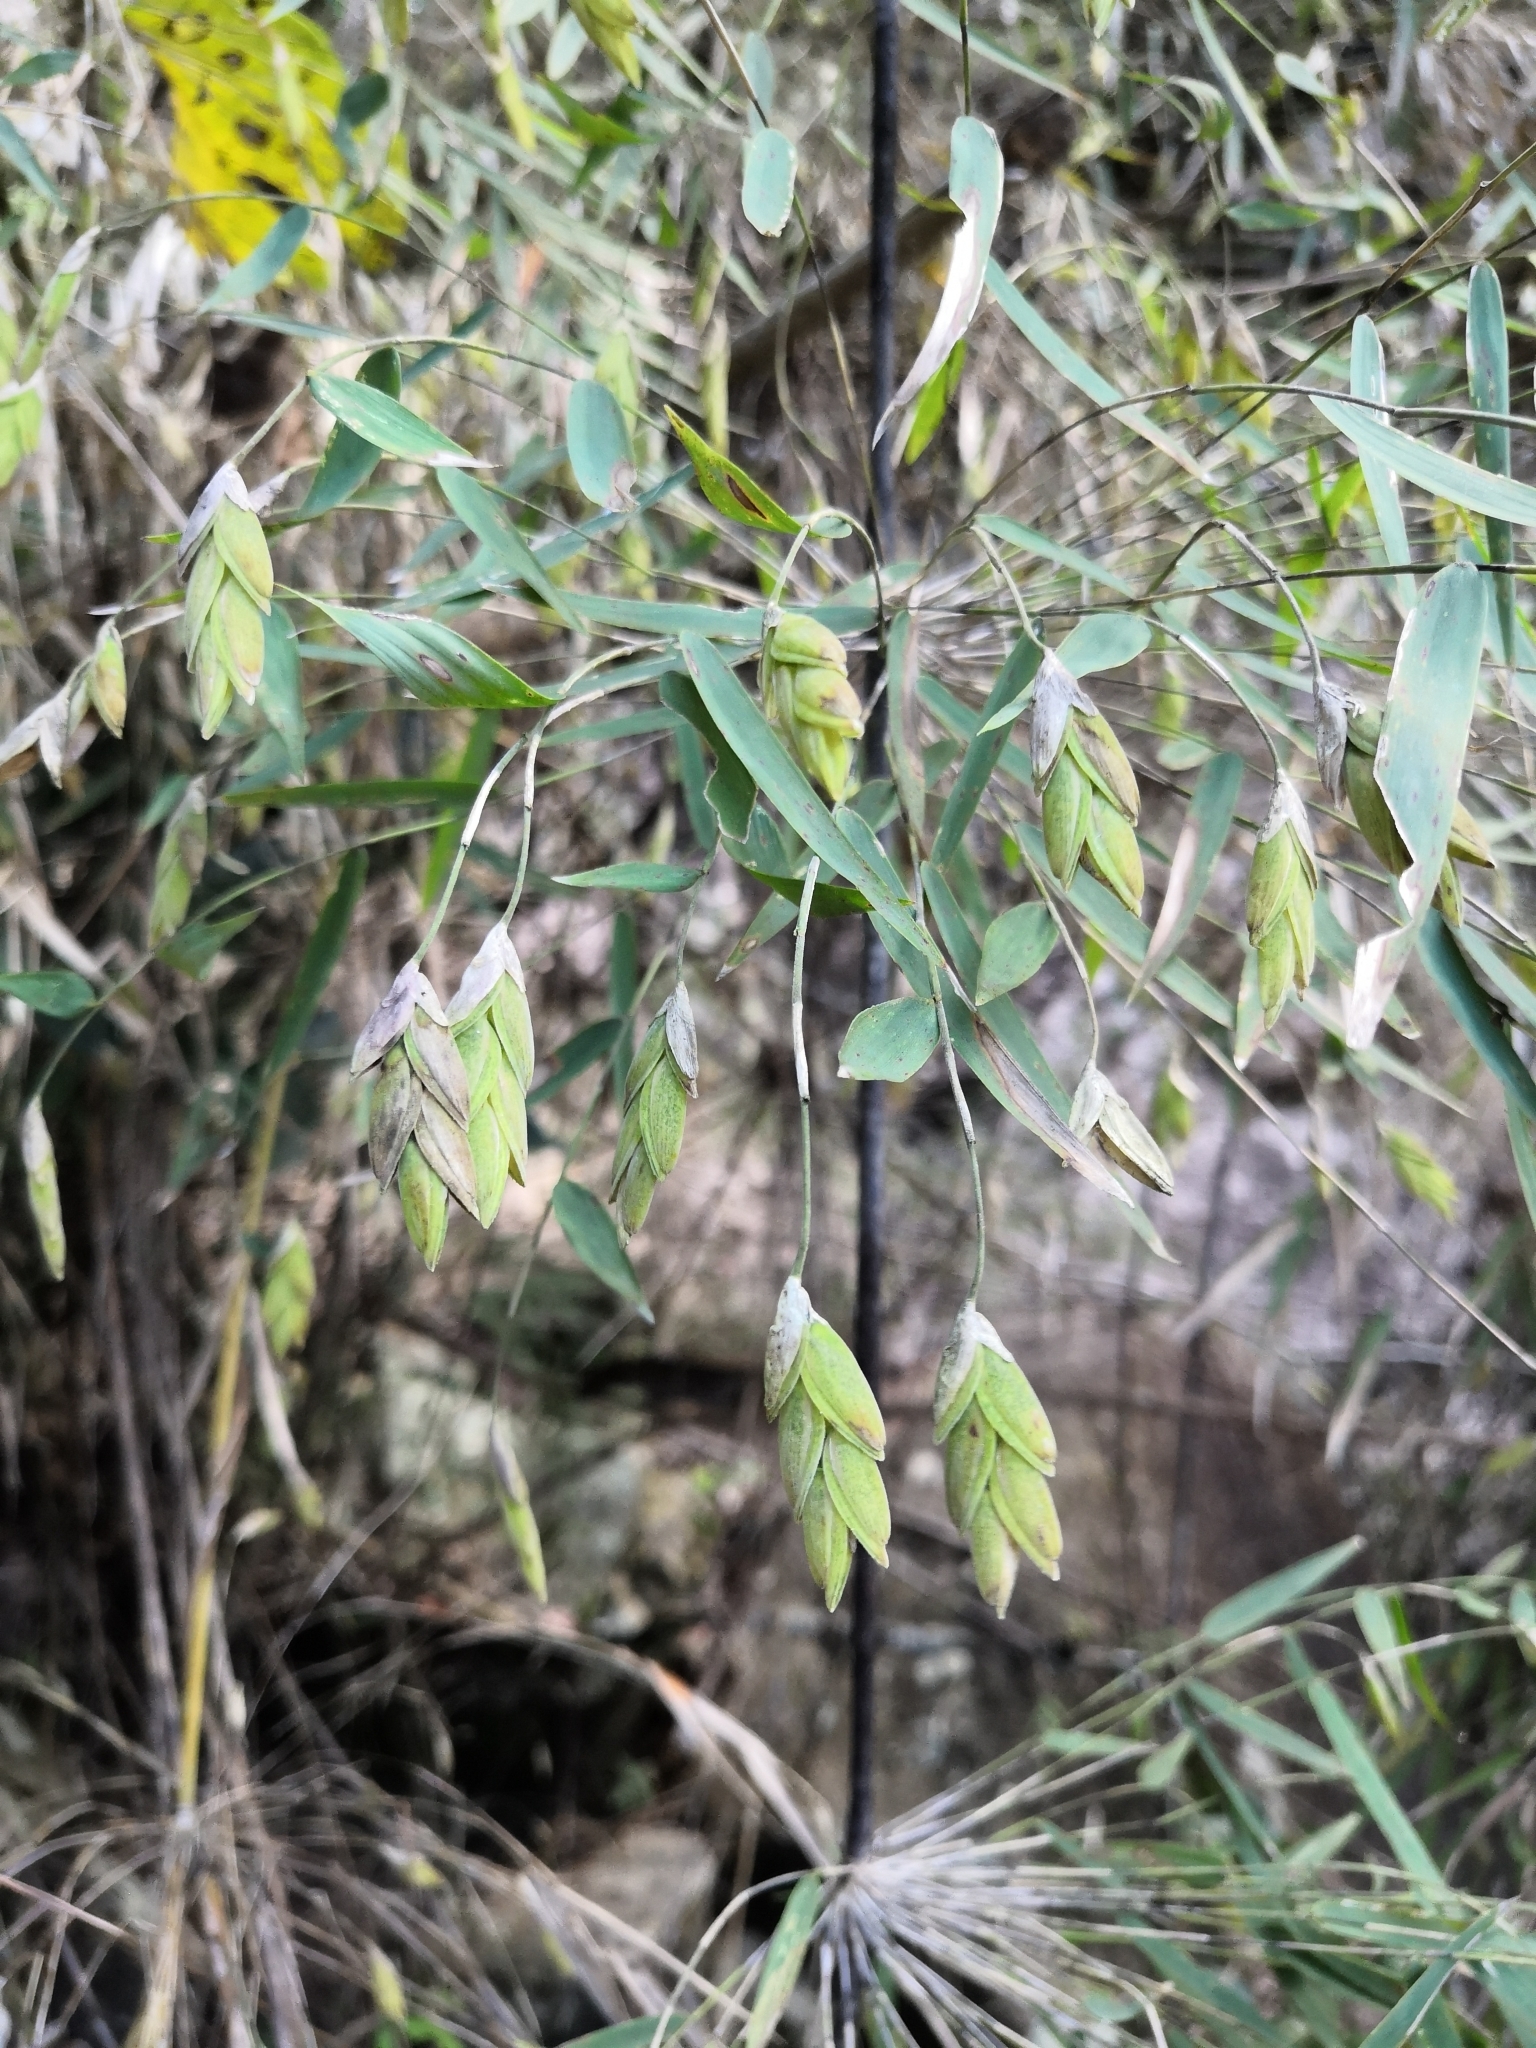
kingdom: Plantae
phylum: Tracheophyta
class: Liliopsida
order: Poales
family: Poaceae
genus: Rhipidocladum
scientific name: Rhipidocladum singuliflorum
